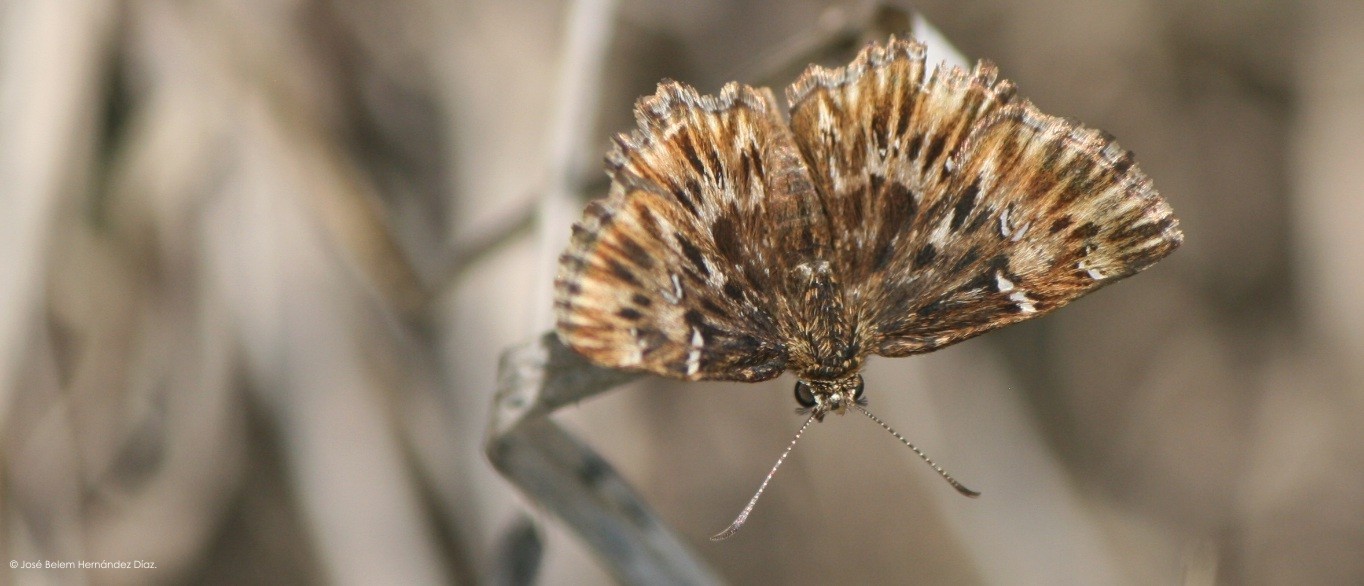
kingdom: Animalia
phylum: Arthropoda
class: Insecta
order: Lepidoptera
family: Hesperiidae
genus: Celotes
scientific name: Celotes spurcus
